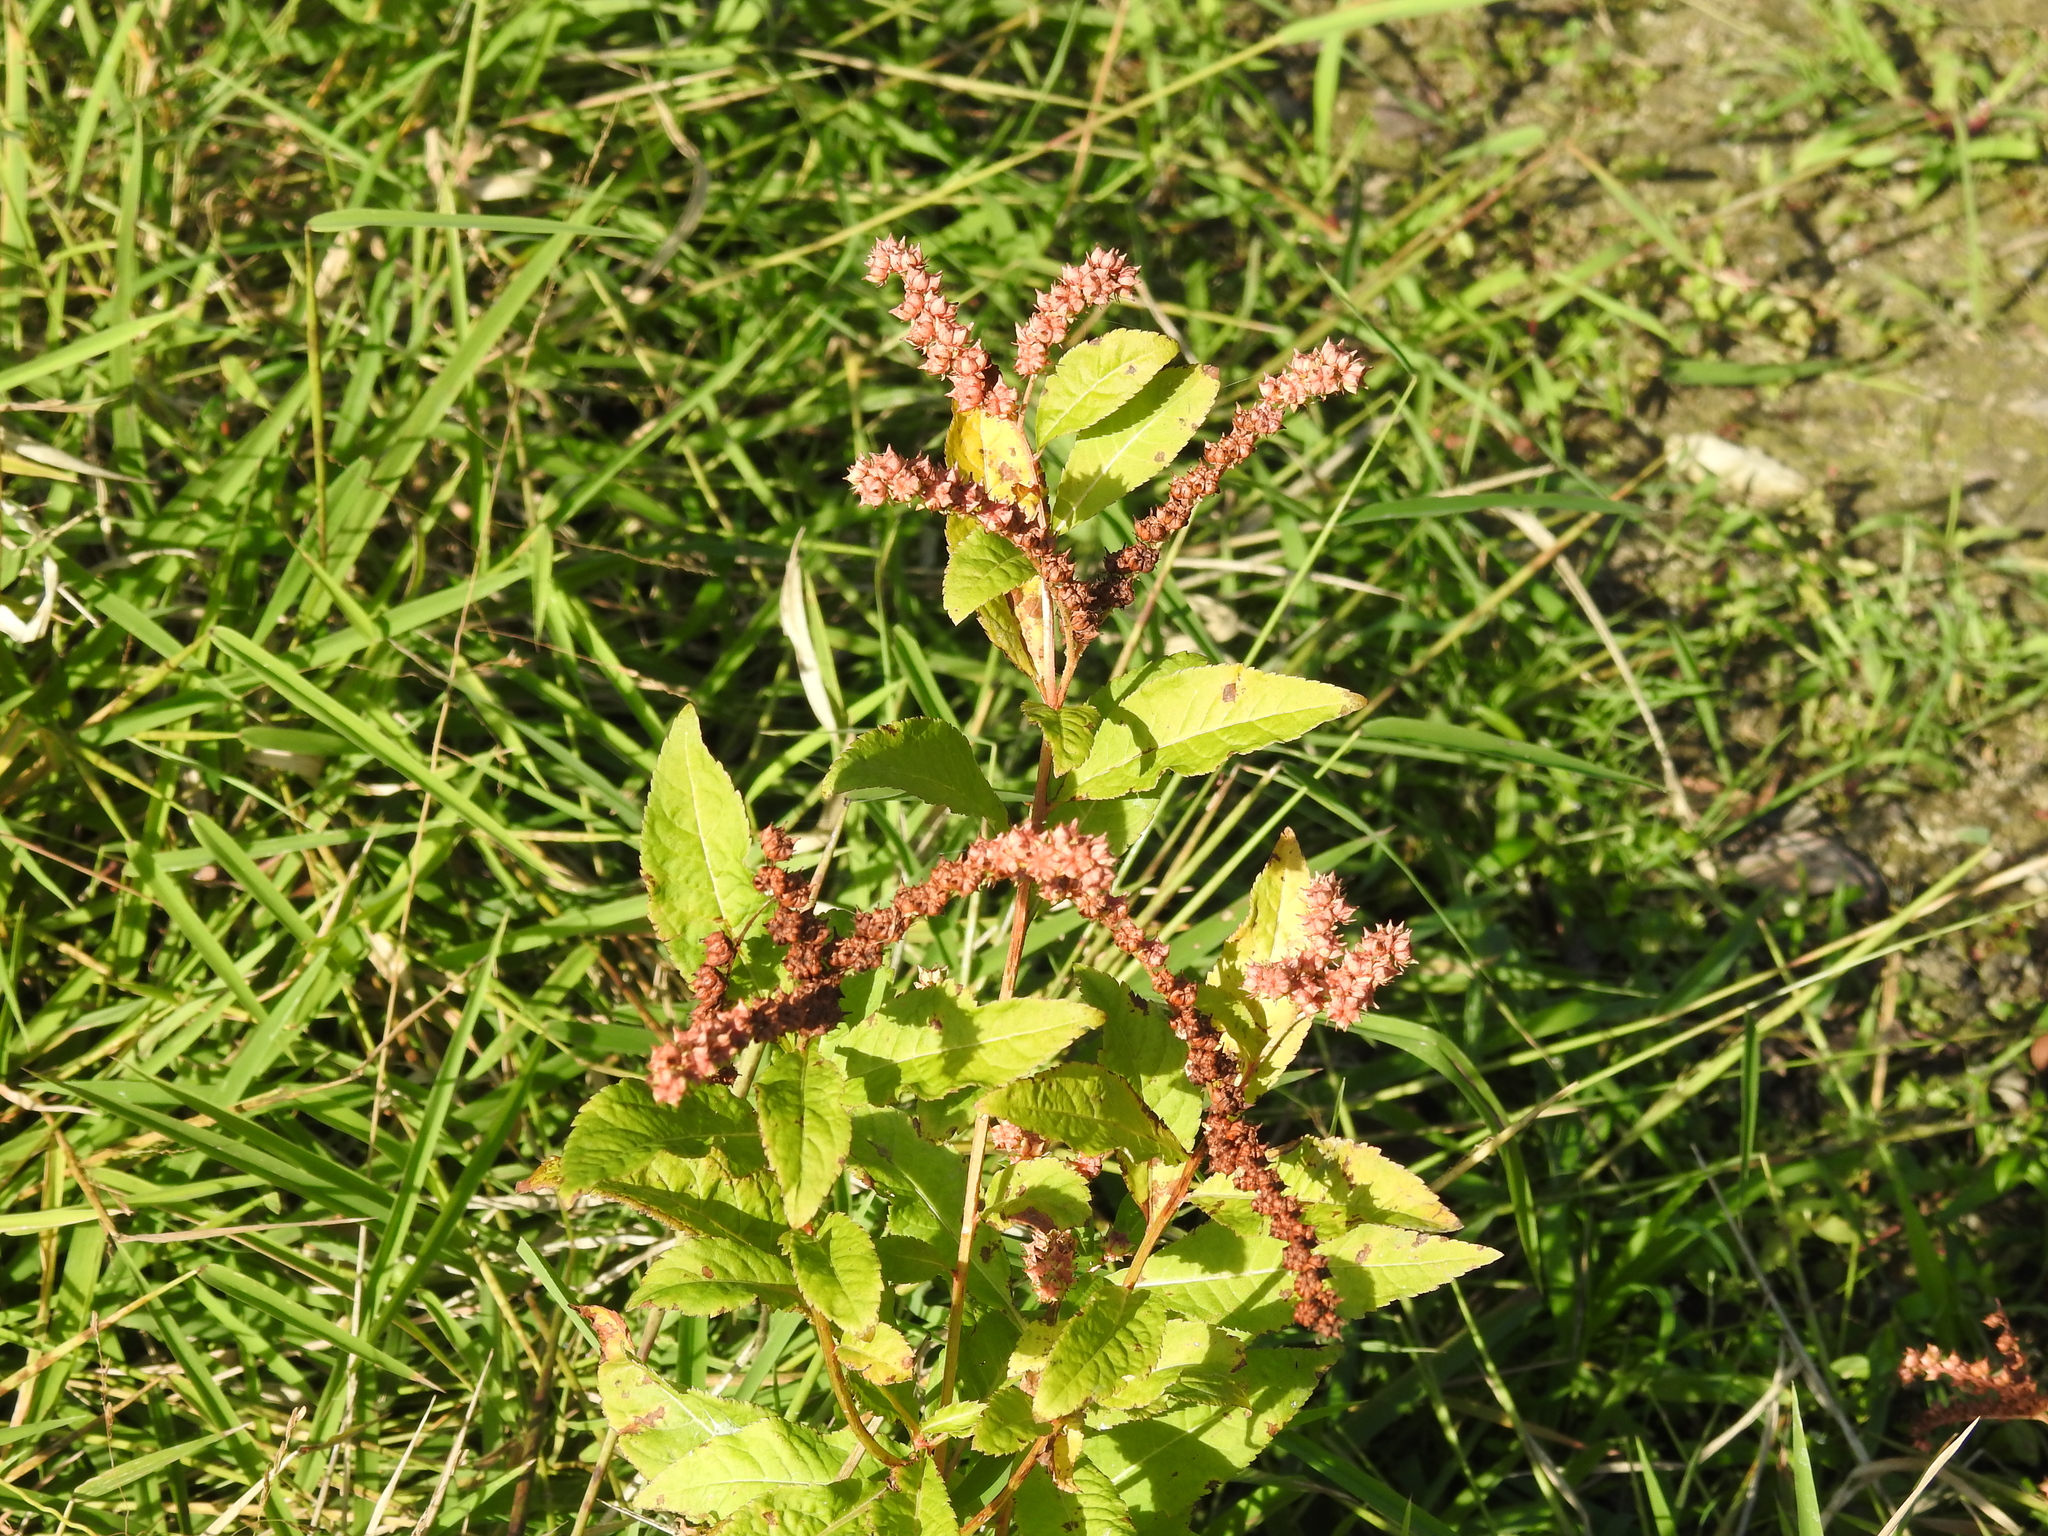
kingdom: Plantae
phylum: Tracheophyta
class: Magnoliopsida
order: Saxifragales
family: Penthoraceae
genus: Penthorum
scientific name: Penthorum sedoides
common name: Ditch stonecrop
